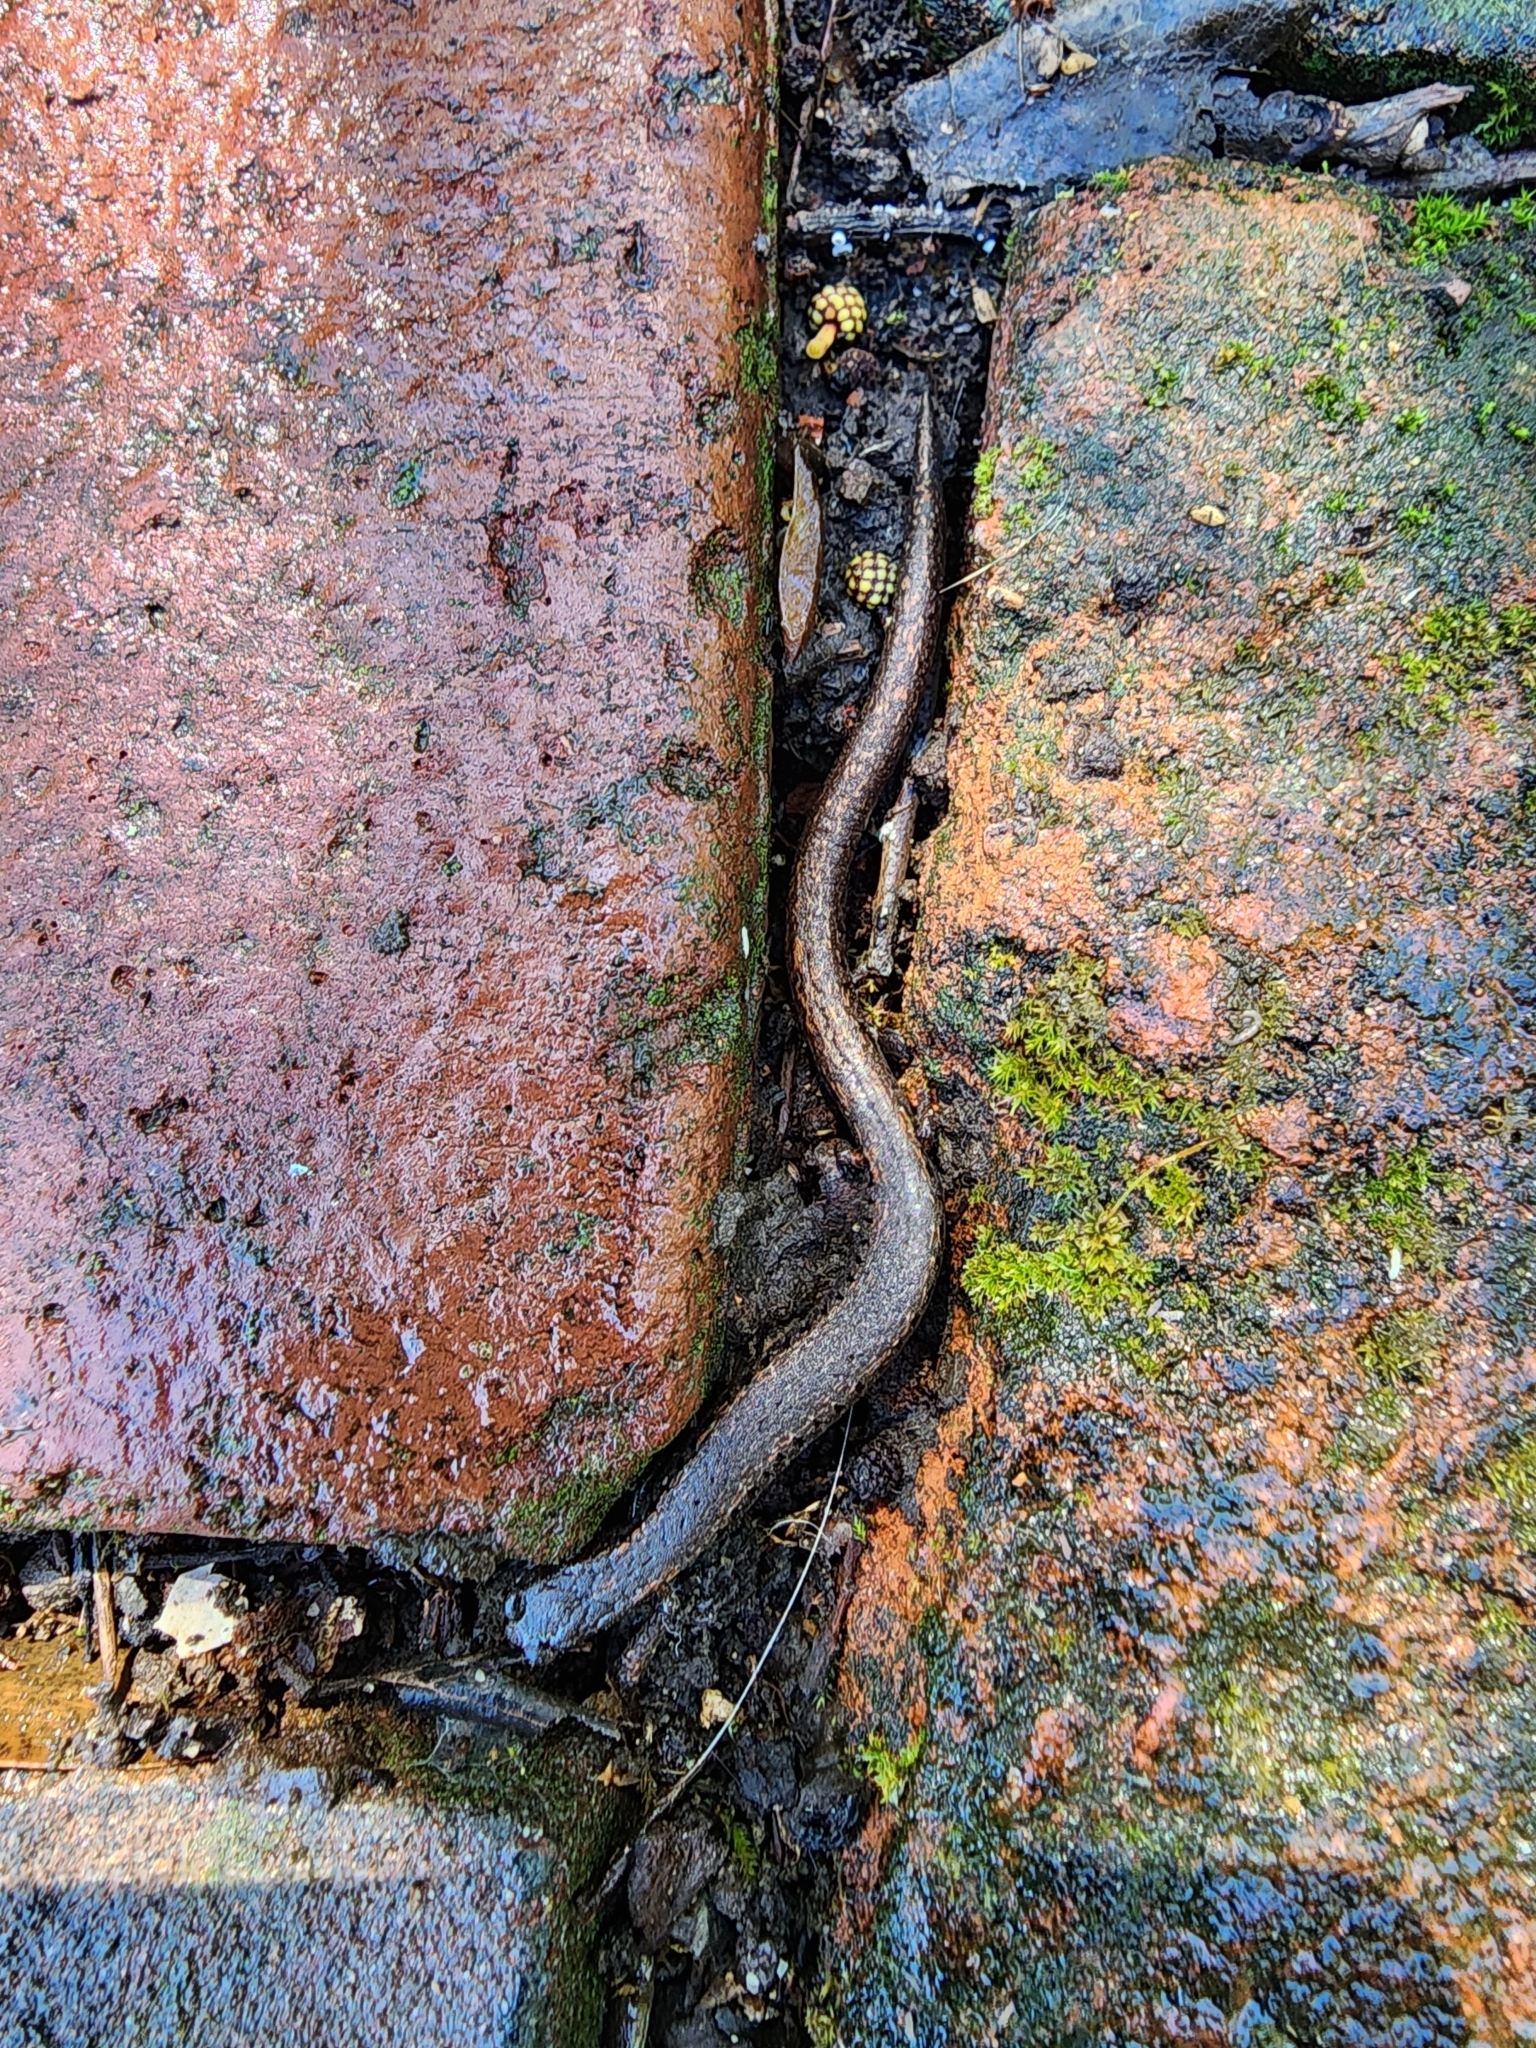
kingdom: Animalia
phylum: Chordata
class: Amphibia
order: Caudata
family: Plethodontidae
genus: Batrachoseps
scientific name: Batrachoseps attenuatus
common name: California slender salamander
